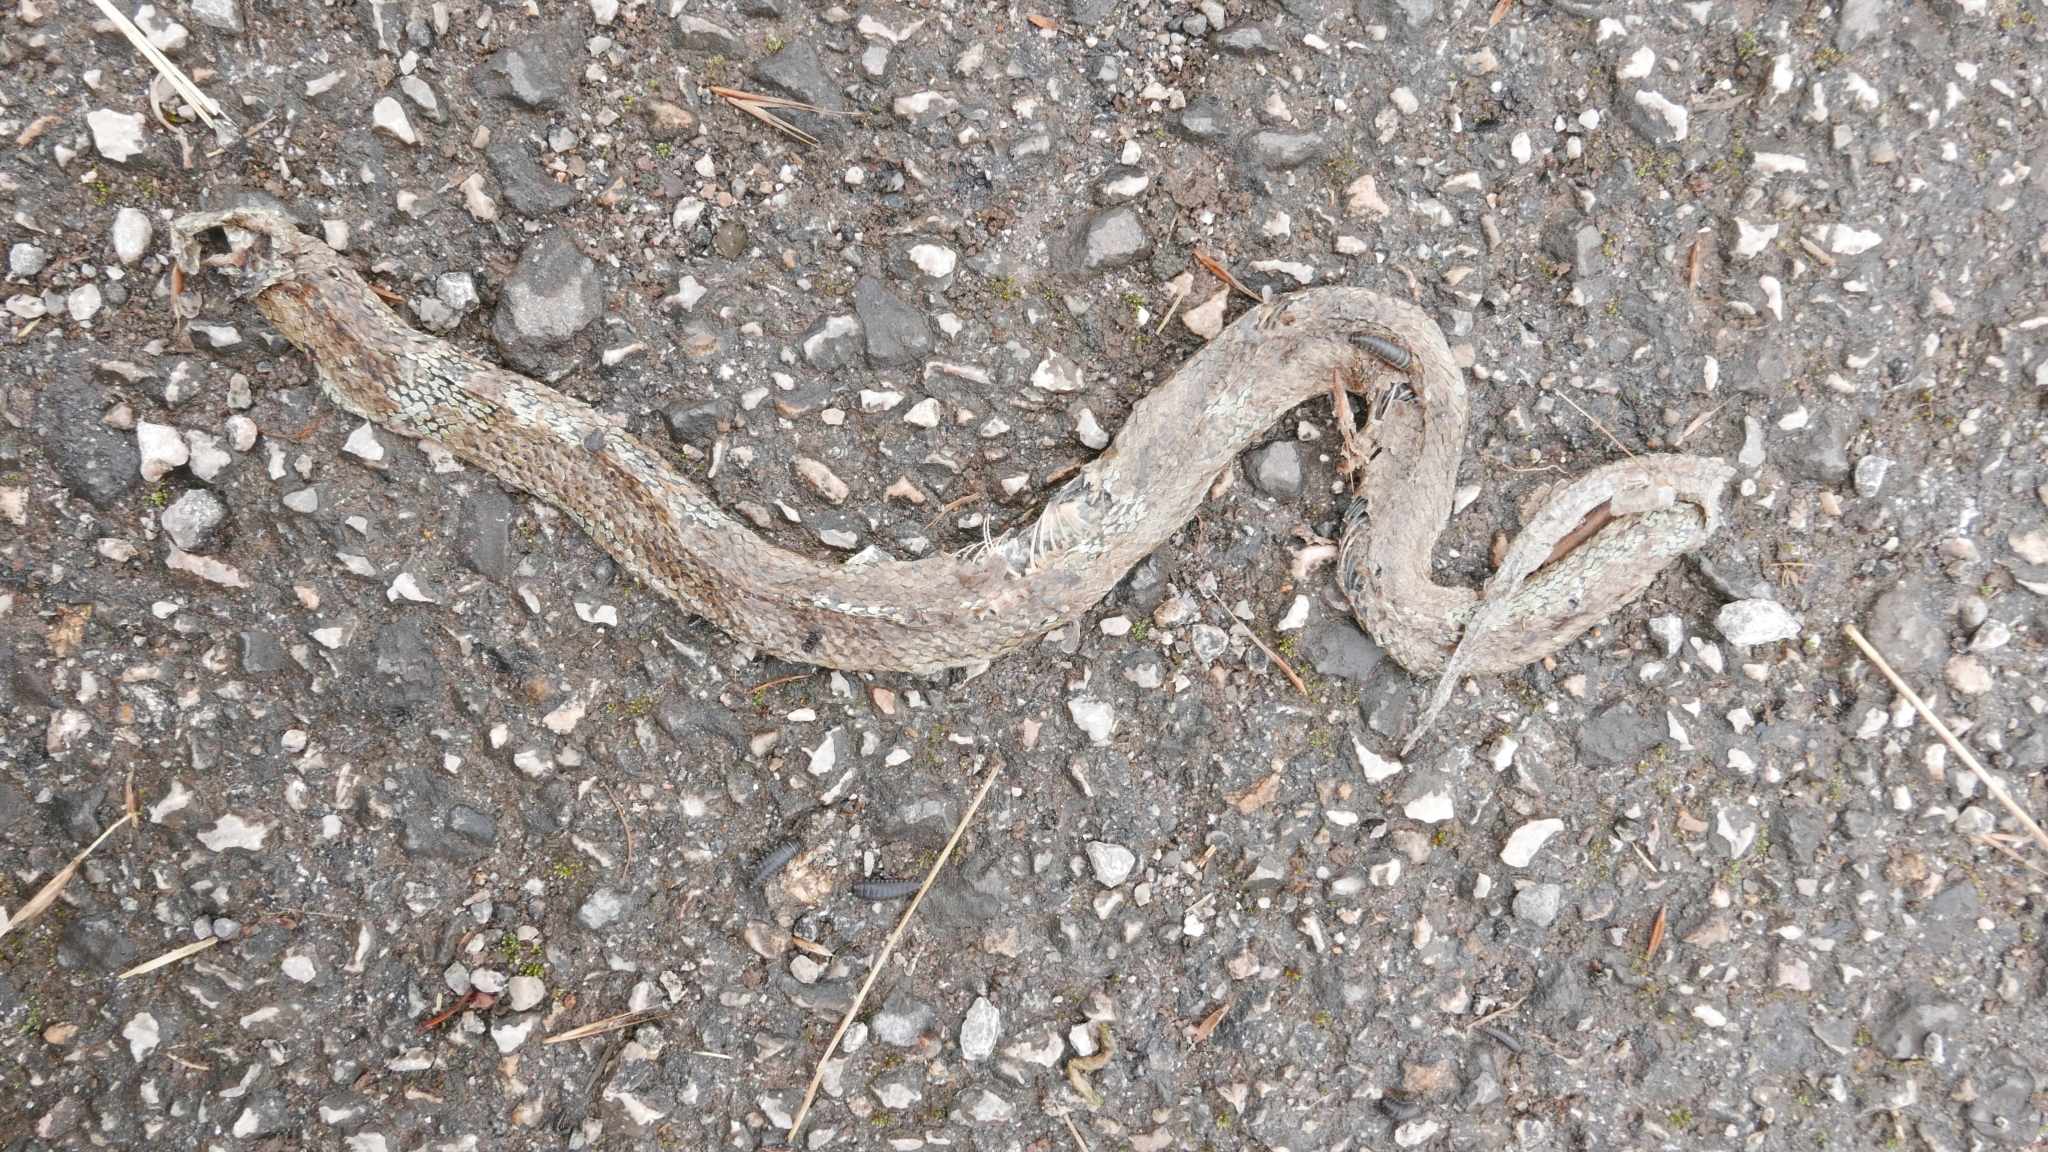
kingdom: Animalia
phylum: Chordata
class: Squamata
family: Colubridae
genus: Natrix
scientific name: Natrix astreptophora
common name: Red-eyed grass snake
